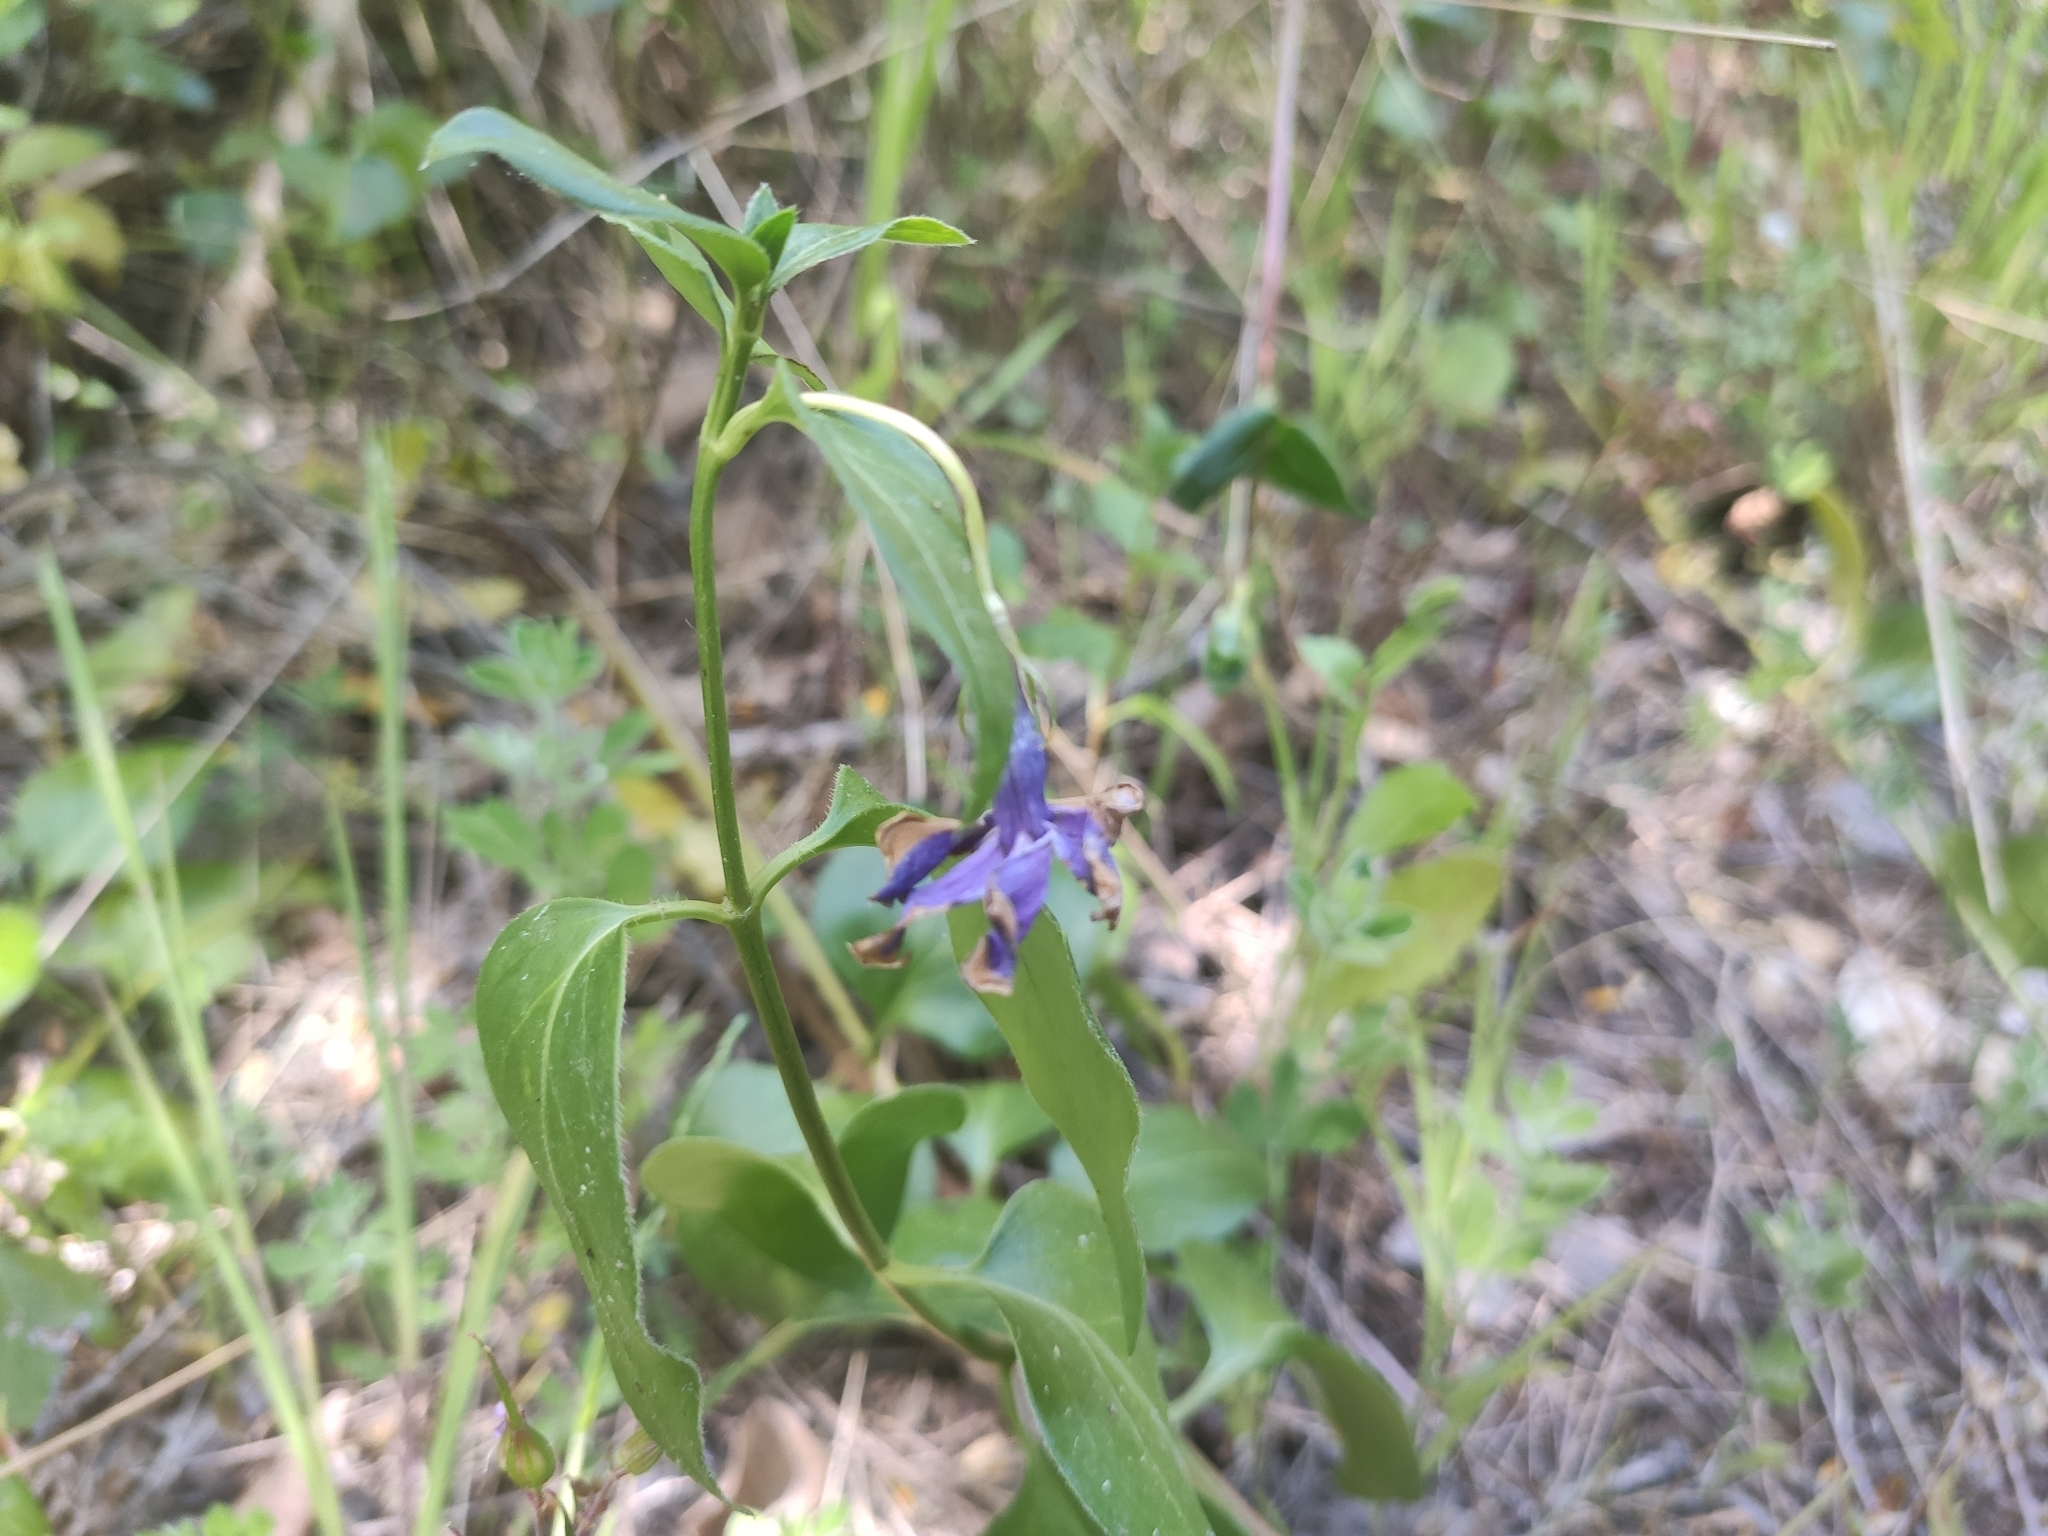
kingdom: Plantae
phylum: Tracheophyta
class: Magnoliopsida
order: Gentianales
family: Apocynaceae
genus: Vinca
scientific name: Vinca major
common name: Greater periwinkle
